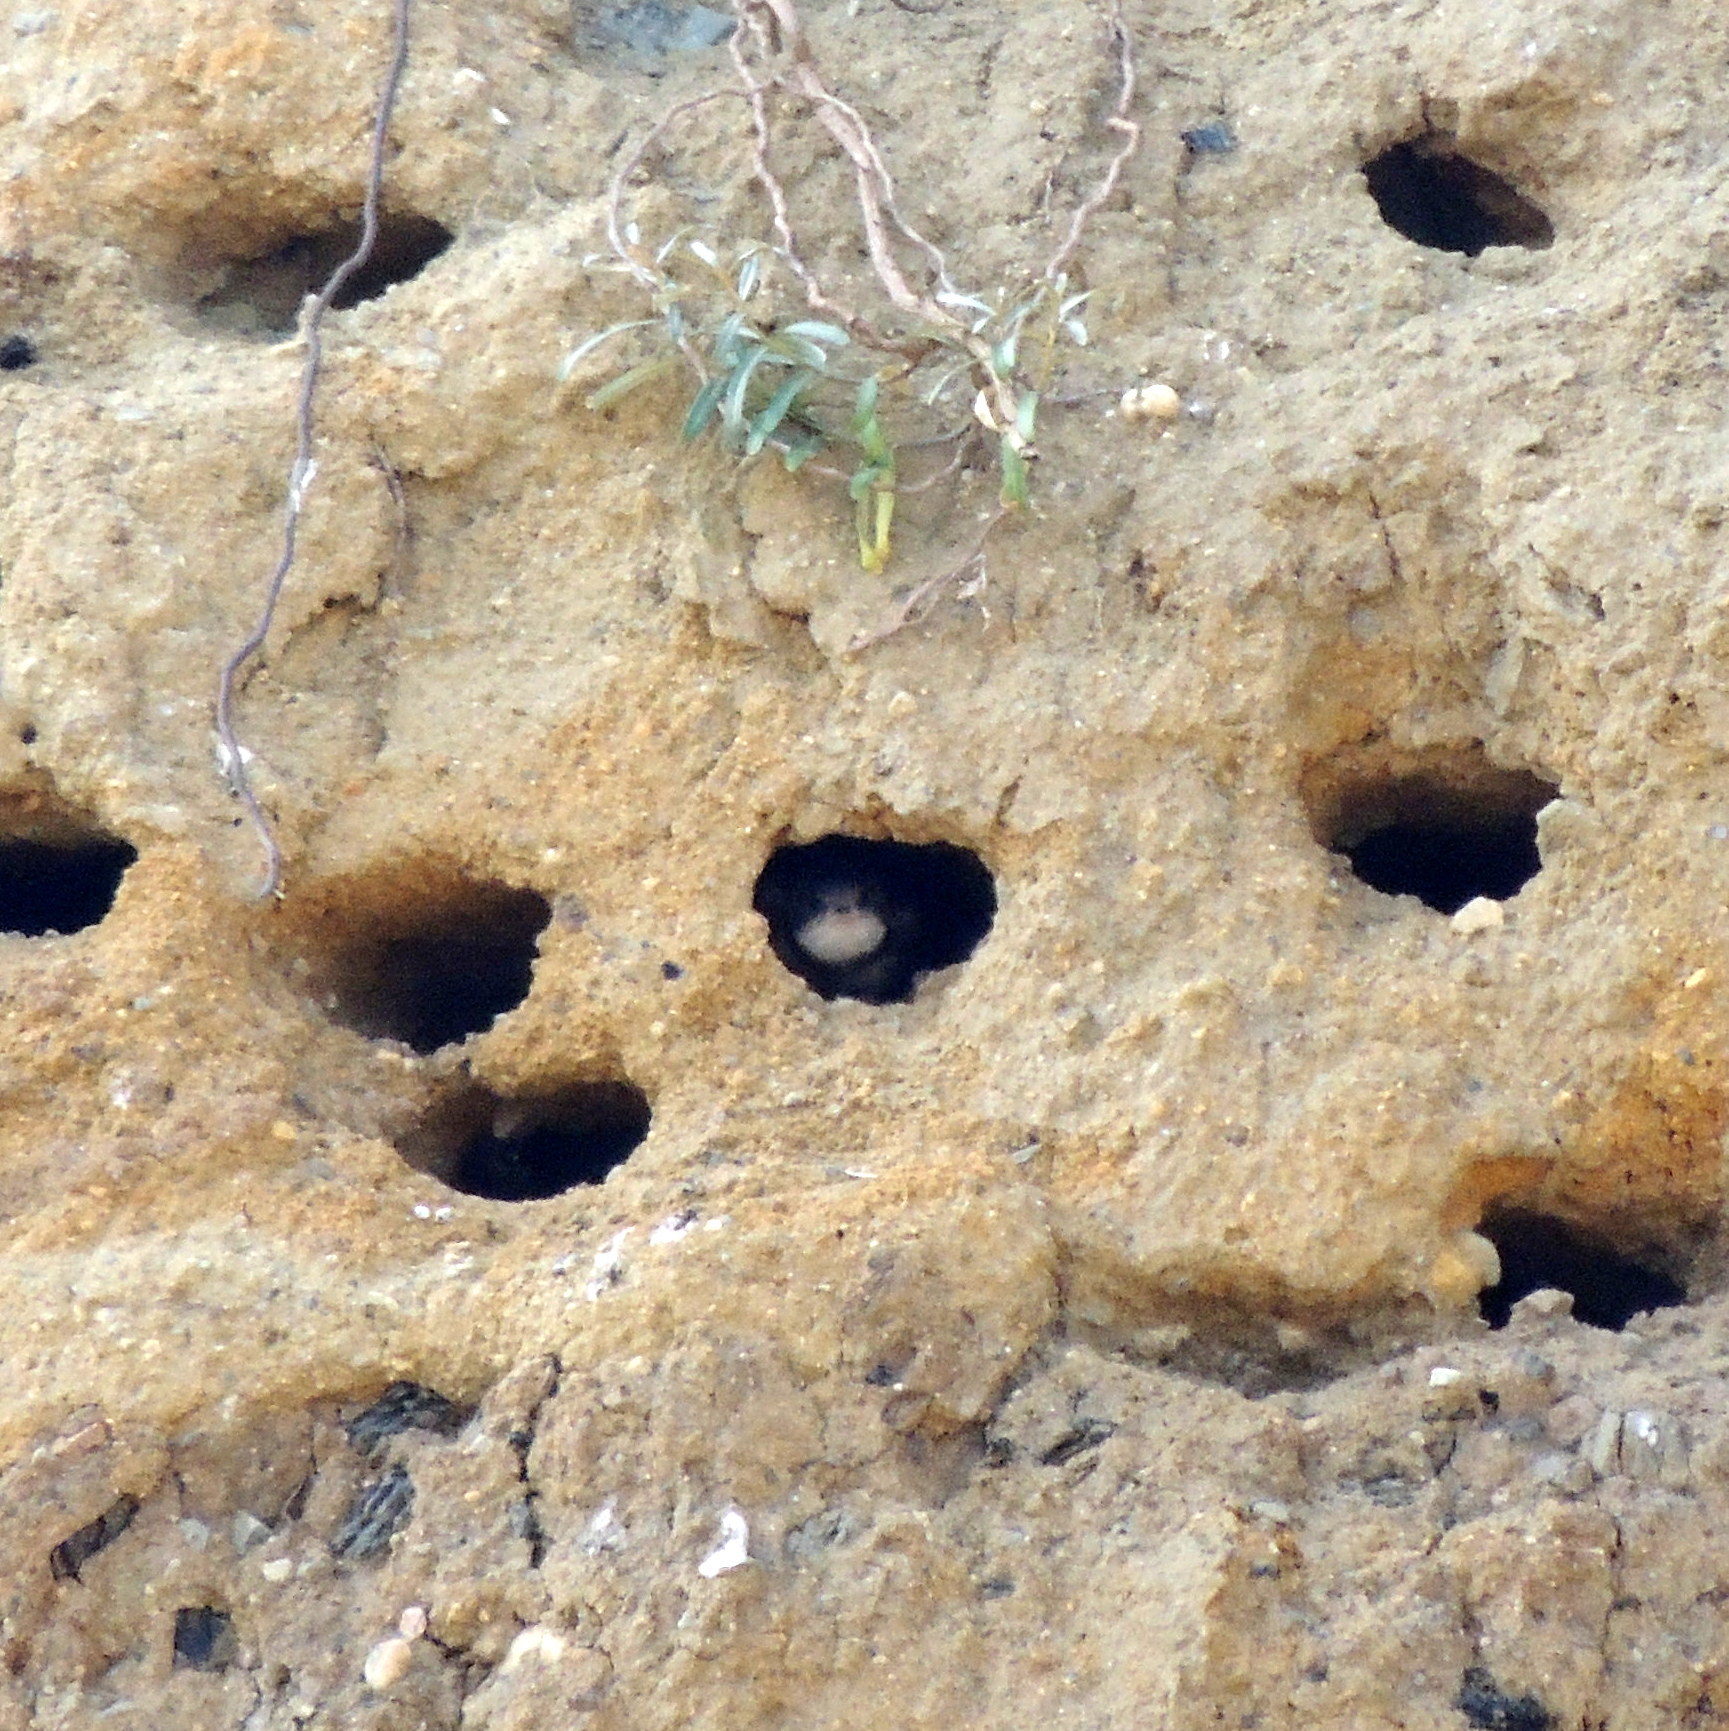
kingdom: Animalia
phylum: Chordata
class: Aves
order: Passeriformes
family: Hirundinidae
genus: Riparia
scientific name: Riparia riparia
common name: Sand martin
